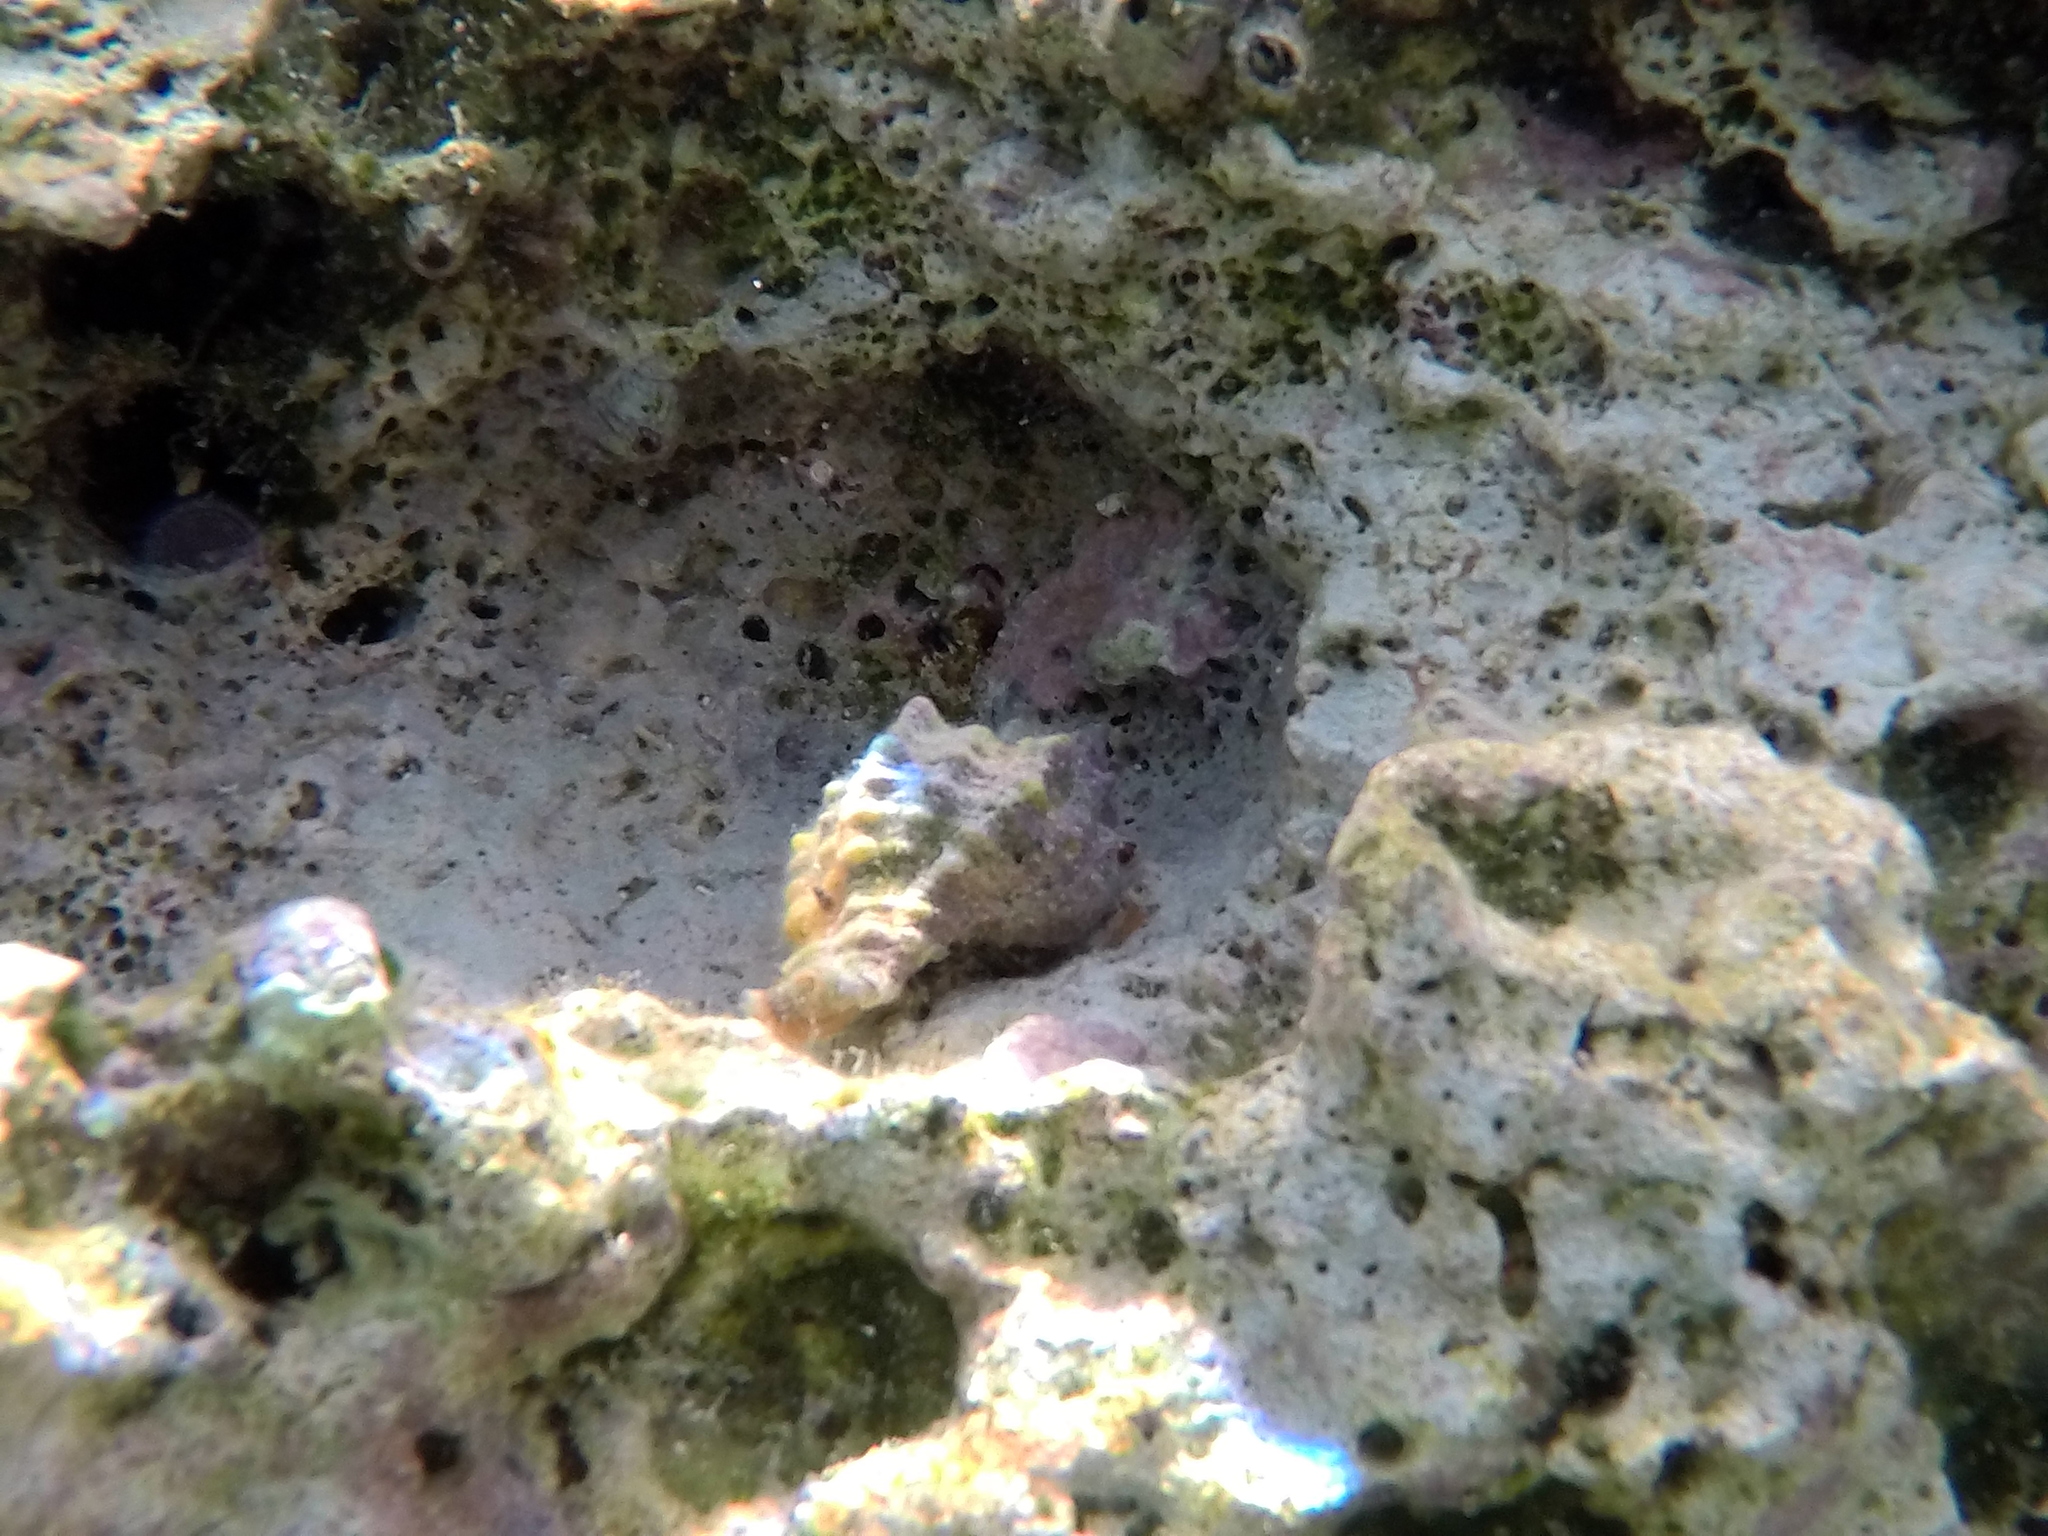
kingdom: Animalia
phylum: Mollusca
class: Gastropoda
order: Neogastropoda
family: Muricidae
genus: Hexaplex
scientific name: Hexaplex trunculus
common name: Banded dye-murex
